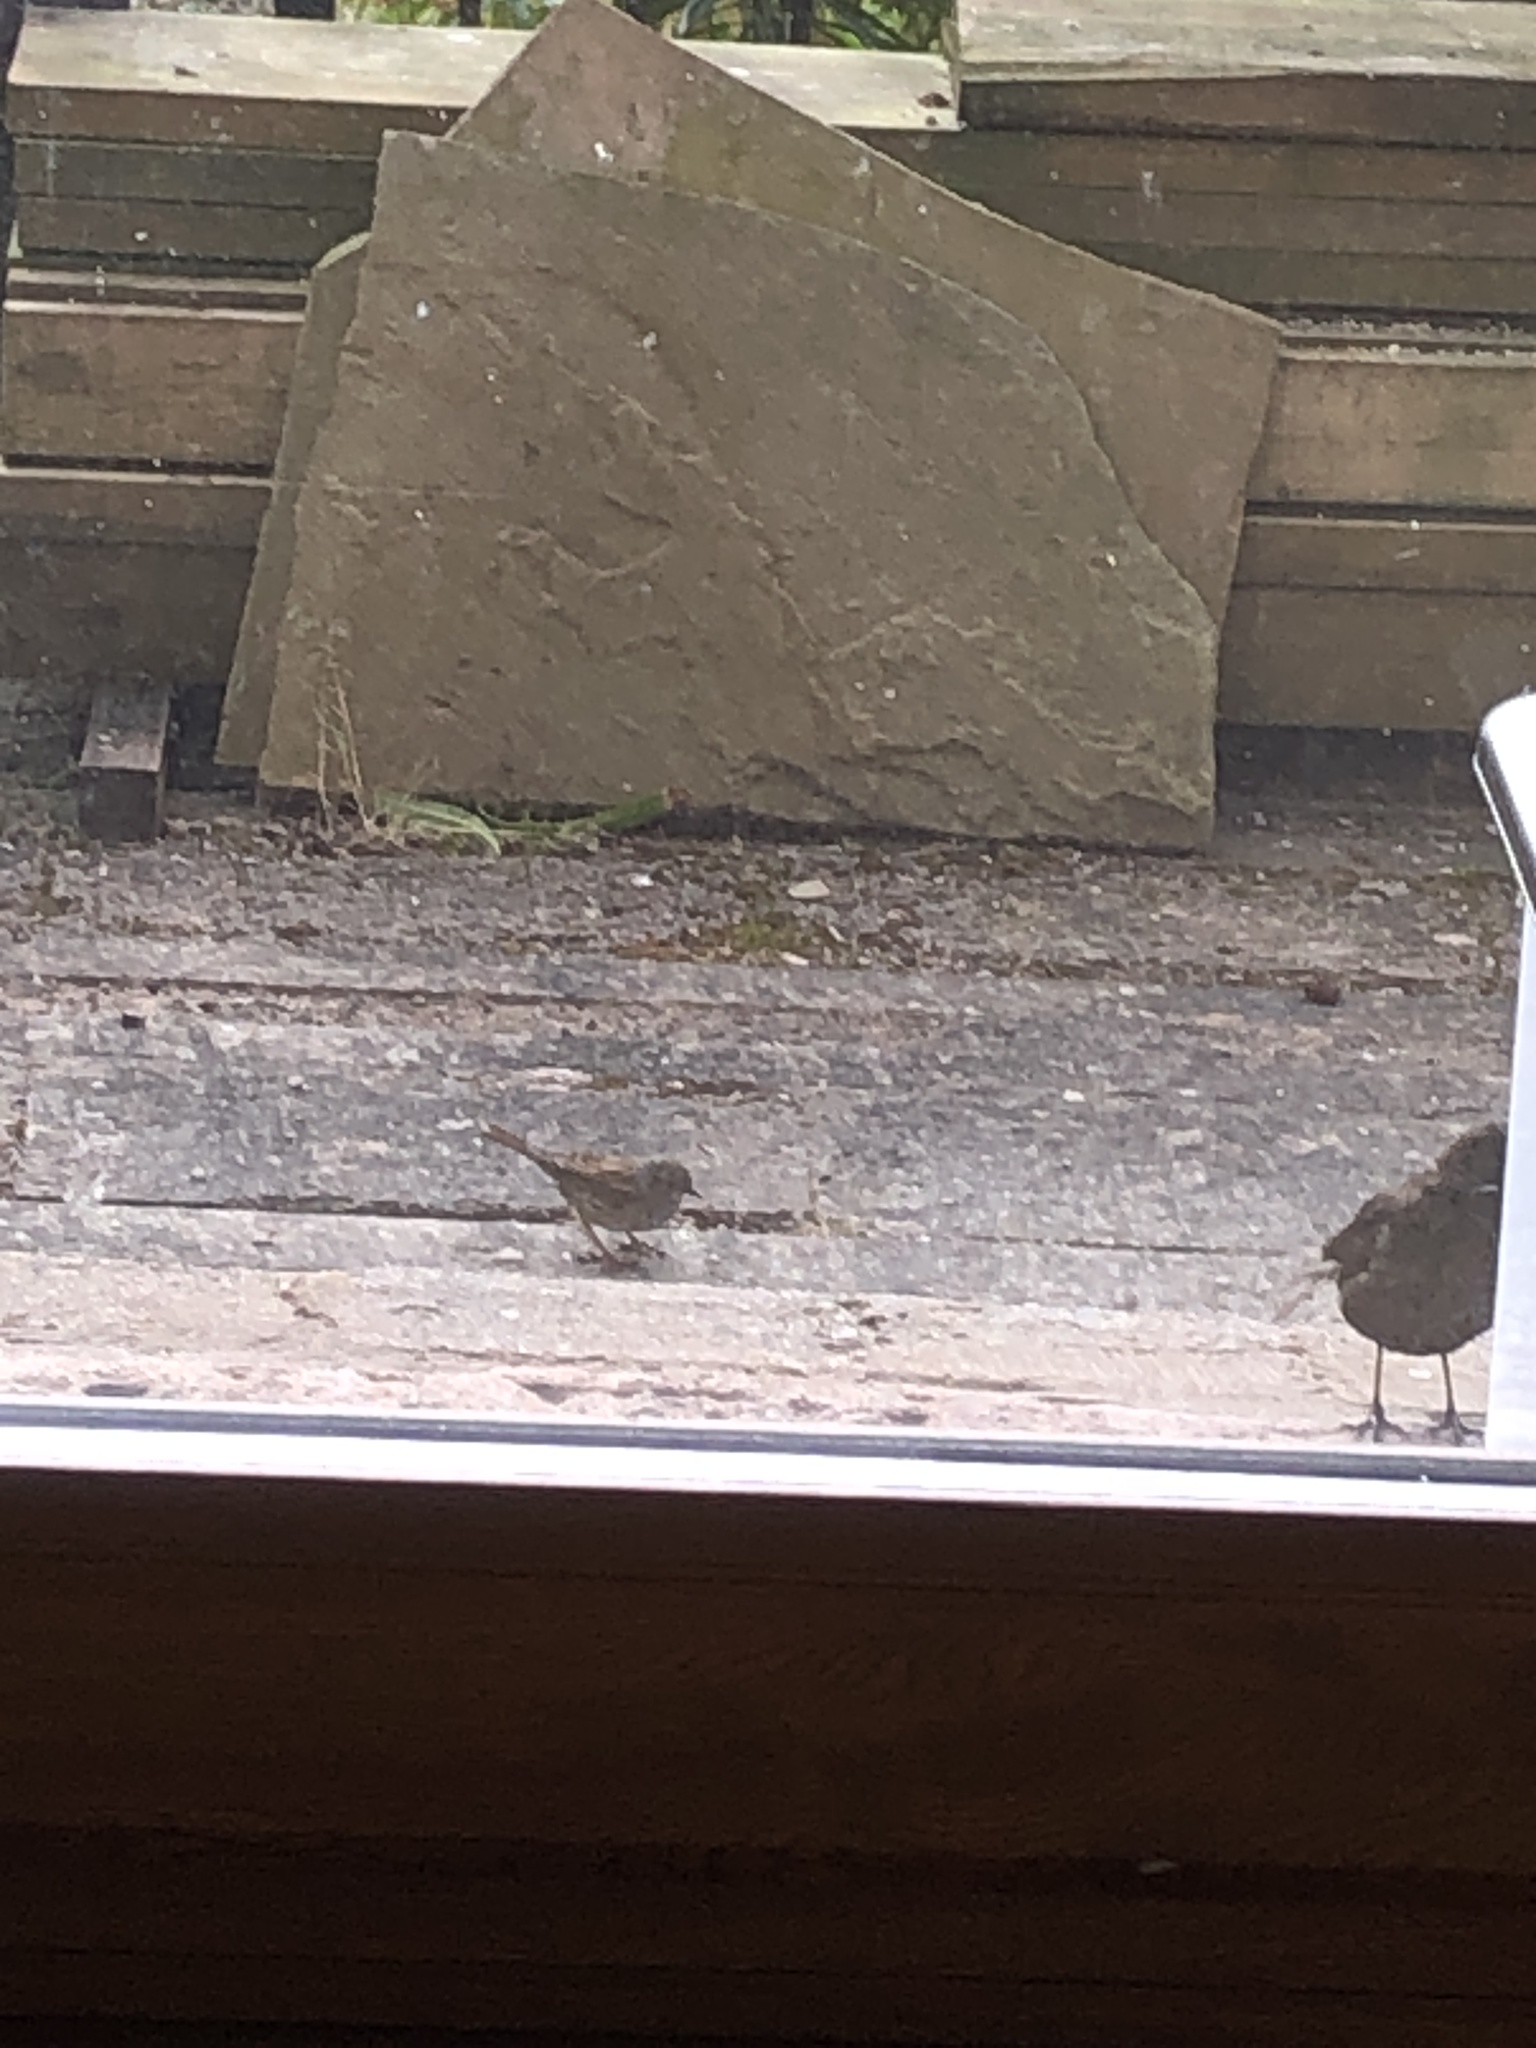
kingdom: Animalia
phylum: Chordata
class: Aves
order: Passeriformes
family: Prunellidae
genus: Prunella
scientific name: Prunella modularis
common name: Dunnock
